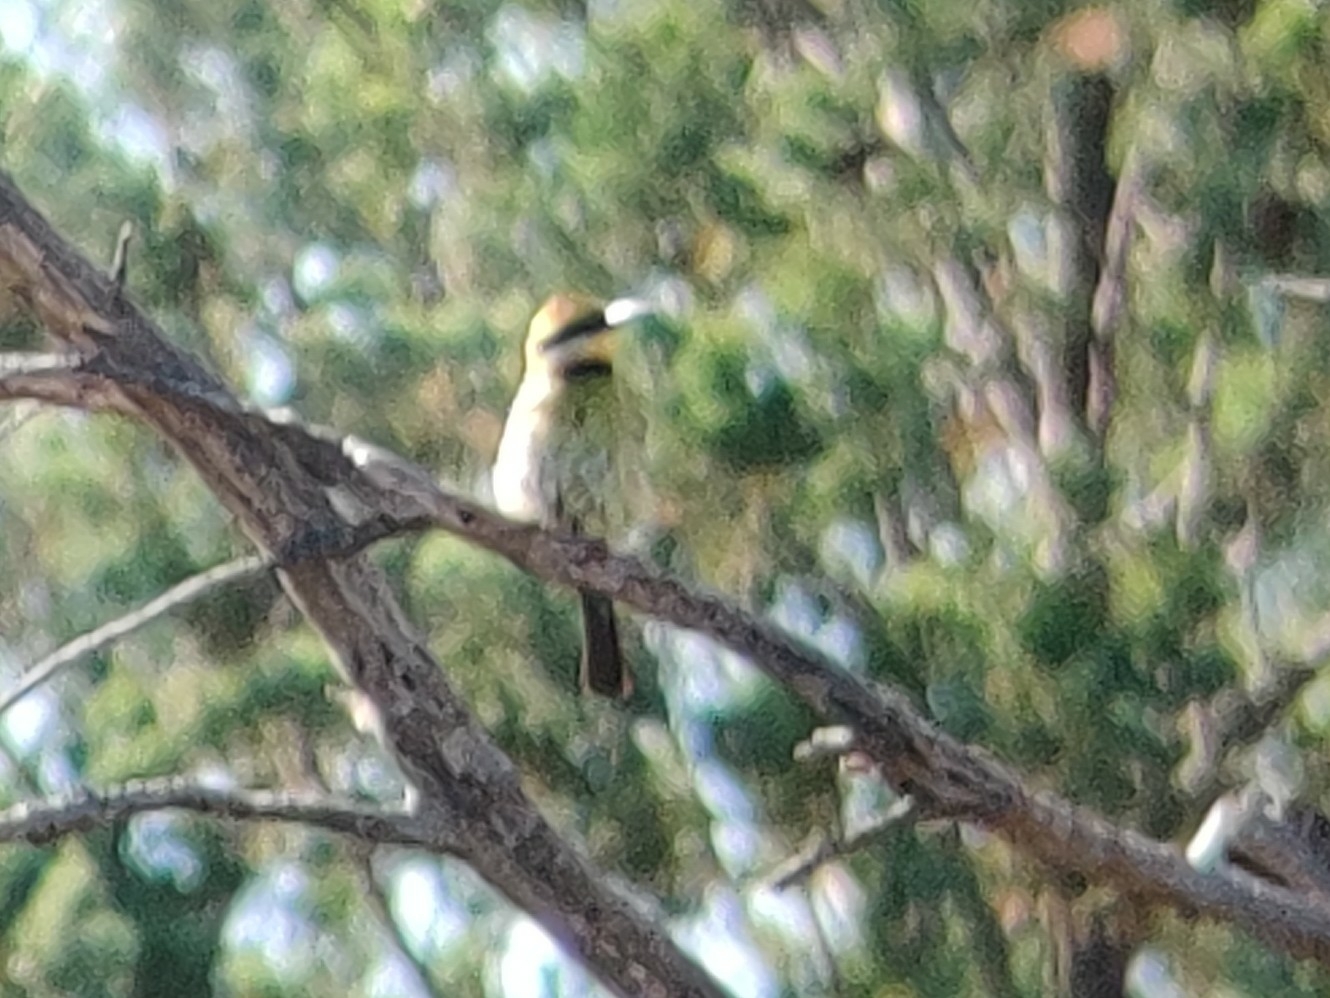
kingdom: Animalia
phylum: Chordata
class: Aves
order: Coraciiformes
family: Meropidae
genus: Merops
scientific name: Merops ornatus
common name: Rainbow bee-eater
